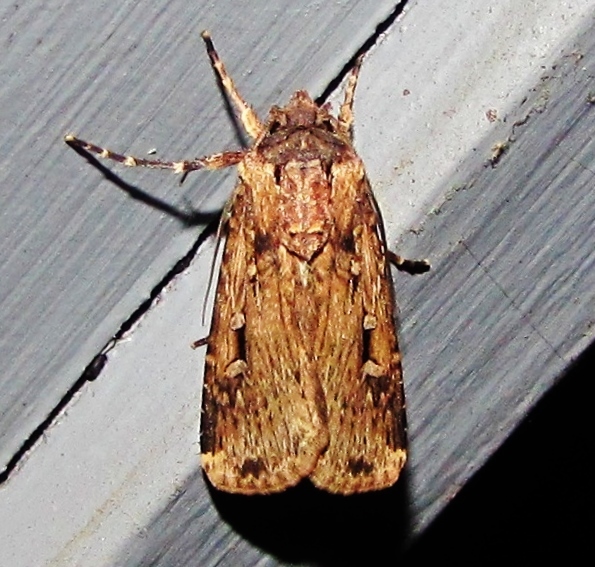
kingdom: Animalia
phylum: Arthropoda
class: Insecta
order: Lepidoptera
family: Noctuidae
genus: Feltia
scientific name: Feltia subterranea
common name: Granulate cutworm
